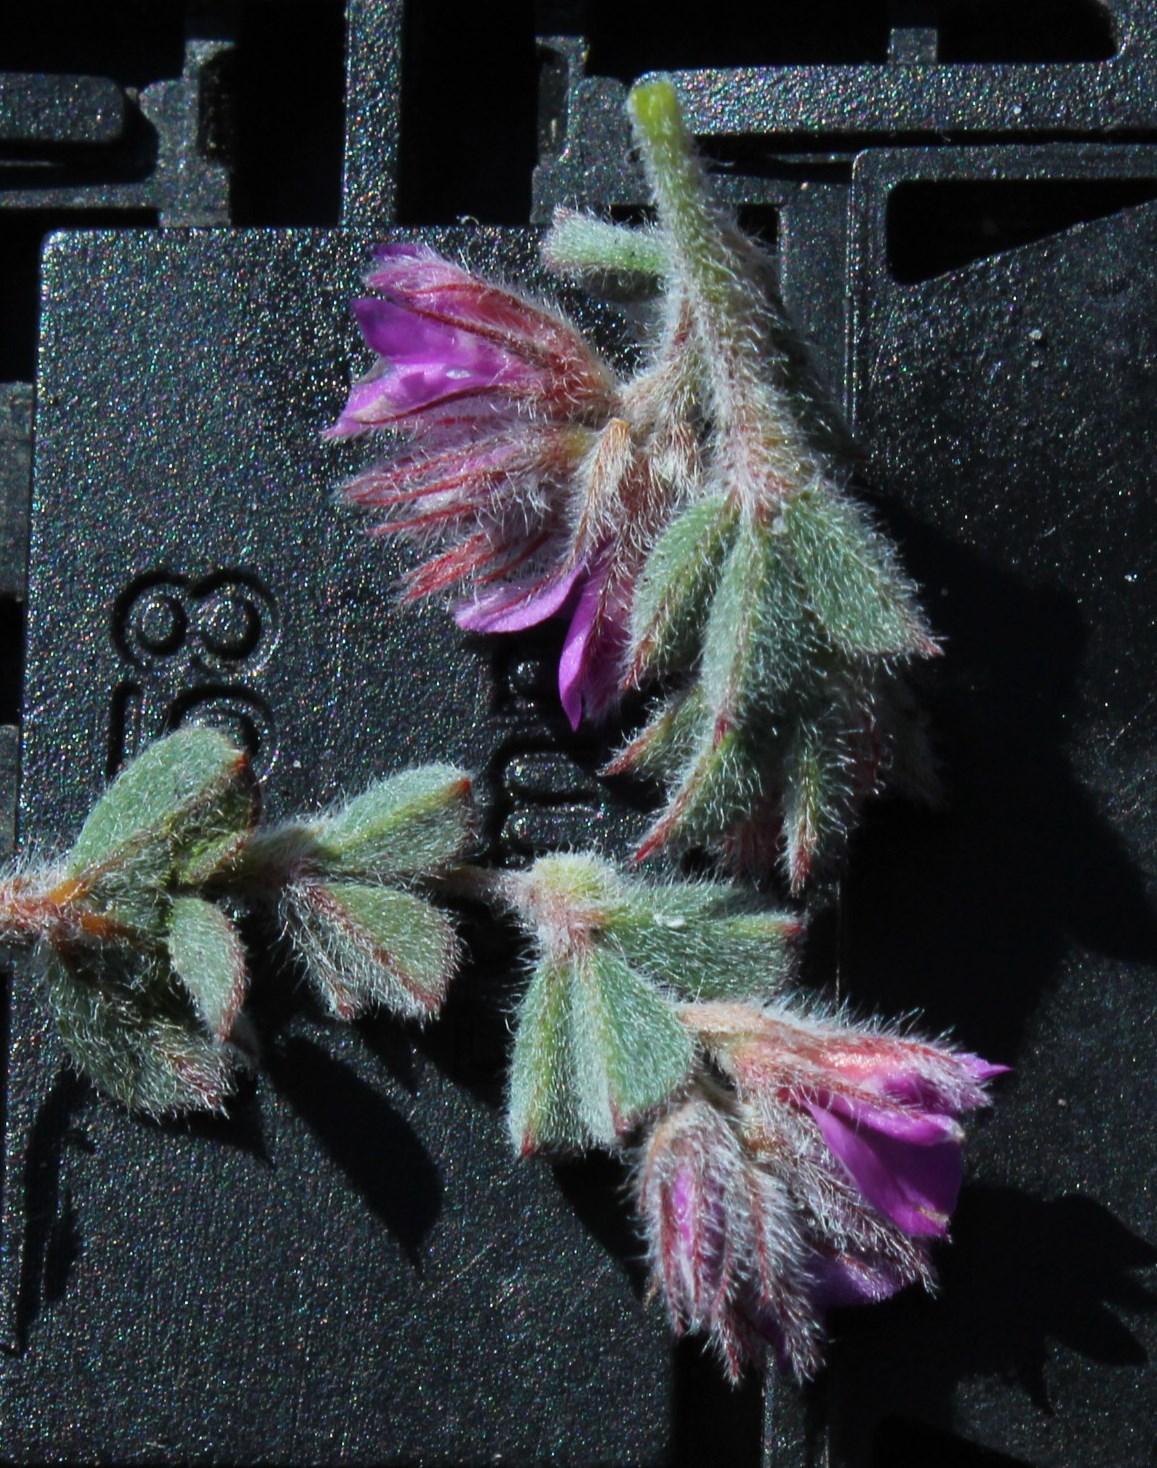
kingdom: Plantae
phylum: Tracheophyta
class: Magnoliopsida
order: Fabales
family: Fabaceae
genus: Indigofera
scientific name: Indigofera glomerata
